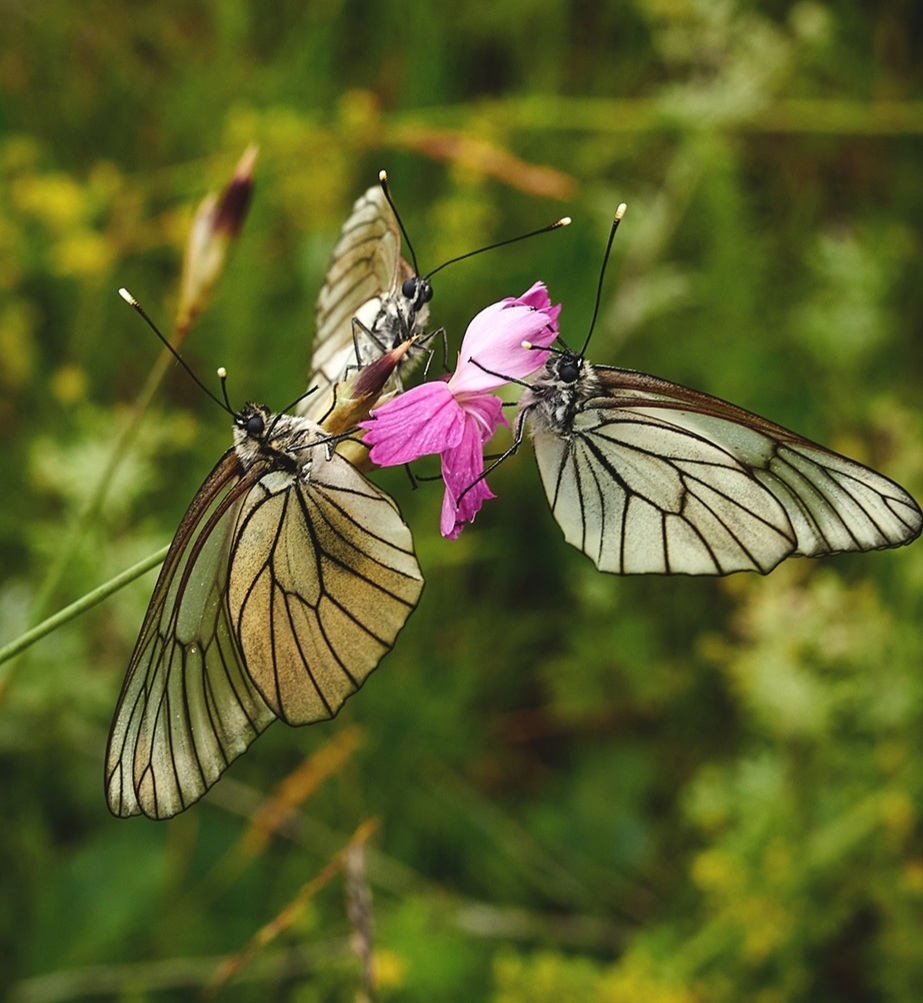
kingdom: Animalia
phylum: Arthropoda
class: Insecta
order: Lepidoptera
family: Pieridae
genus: Aporia
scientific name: Aporia crataegi
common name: Black-veined white
